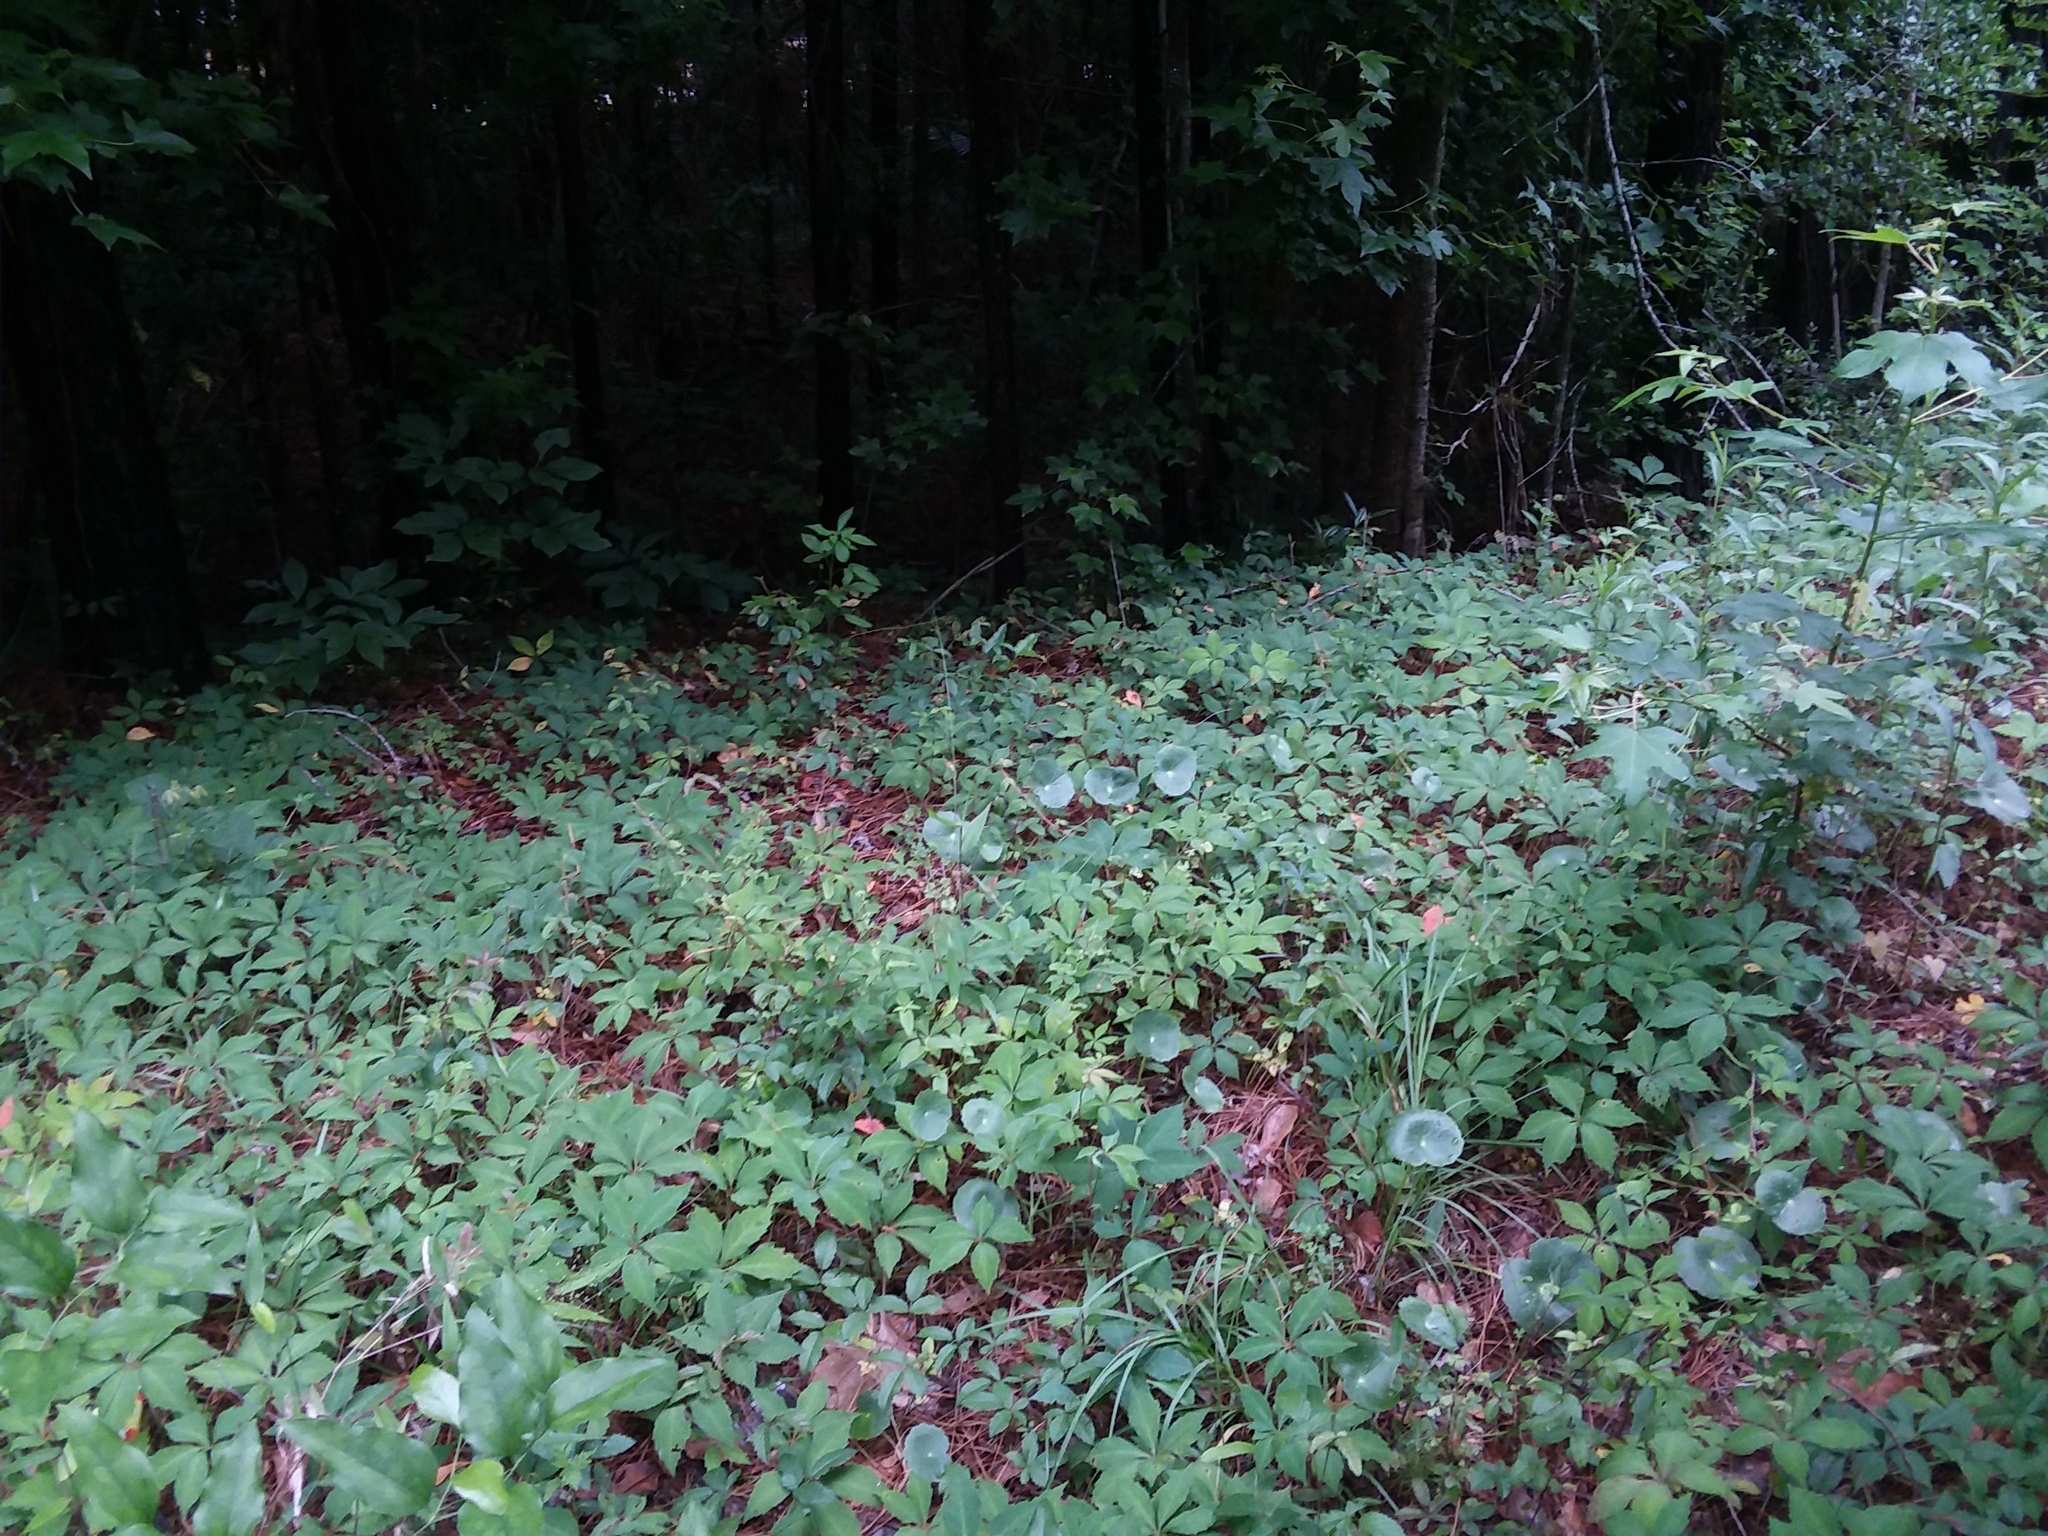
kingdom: Plantae
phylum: Tracheophyta
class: Magnoliopsida
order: Vitales
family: Vitaceae
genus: Parthenocissus
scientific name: Parthenocissus quinquefolia
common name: Virginia-creeper
